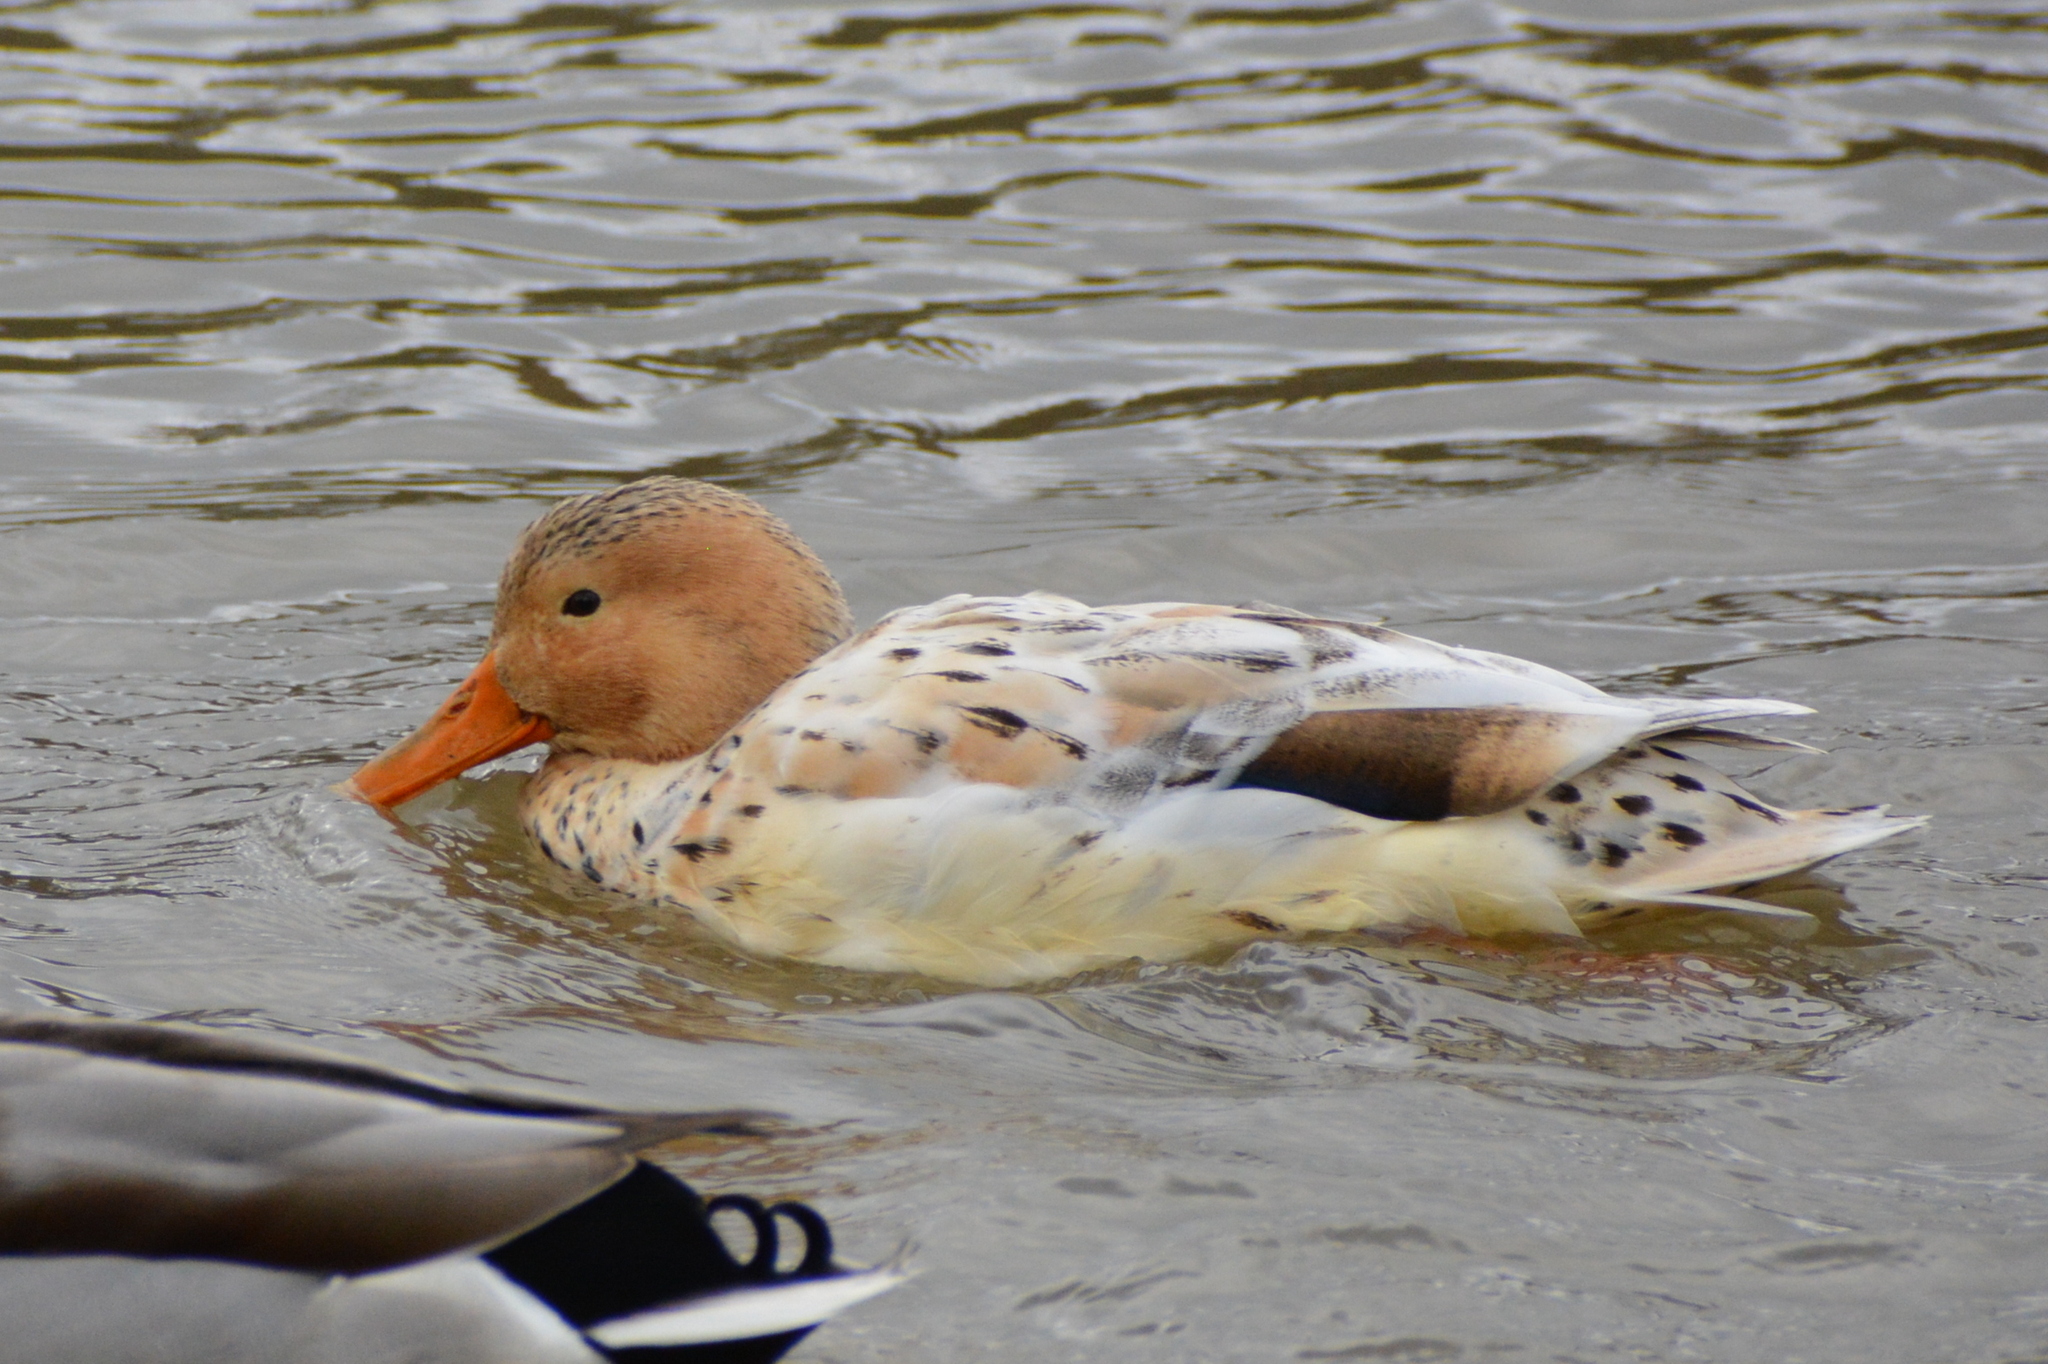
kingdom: Animalia
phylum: Chordata
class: Aves
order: Anseriformes
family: Anatidae
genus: Anas
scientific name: Anas platyrhynchos
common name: Mallard
